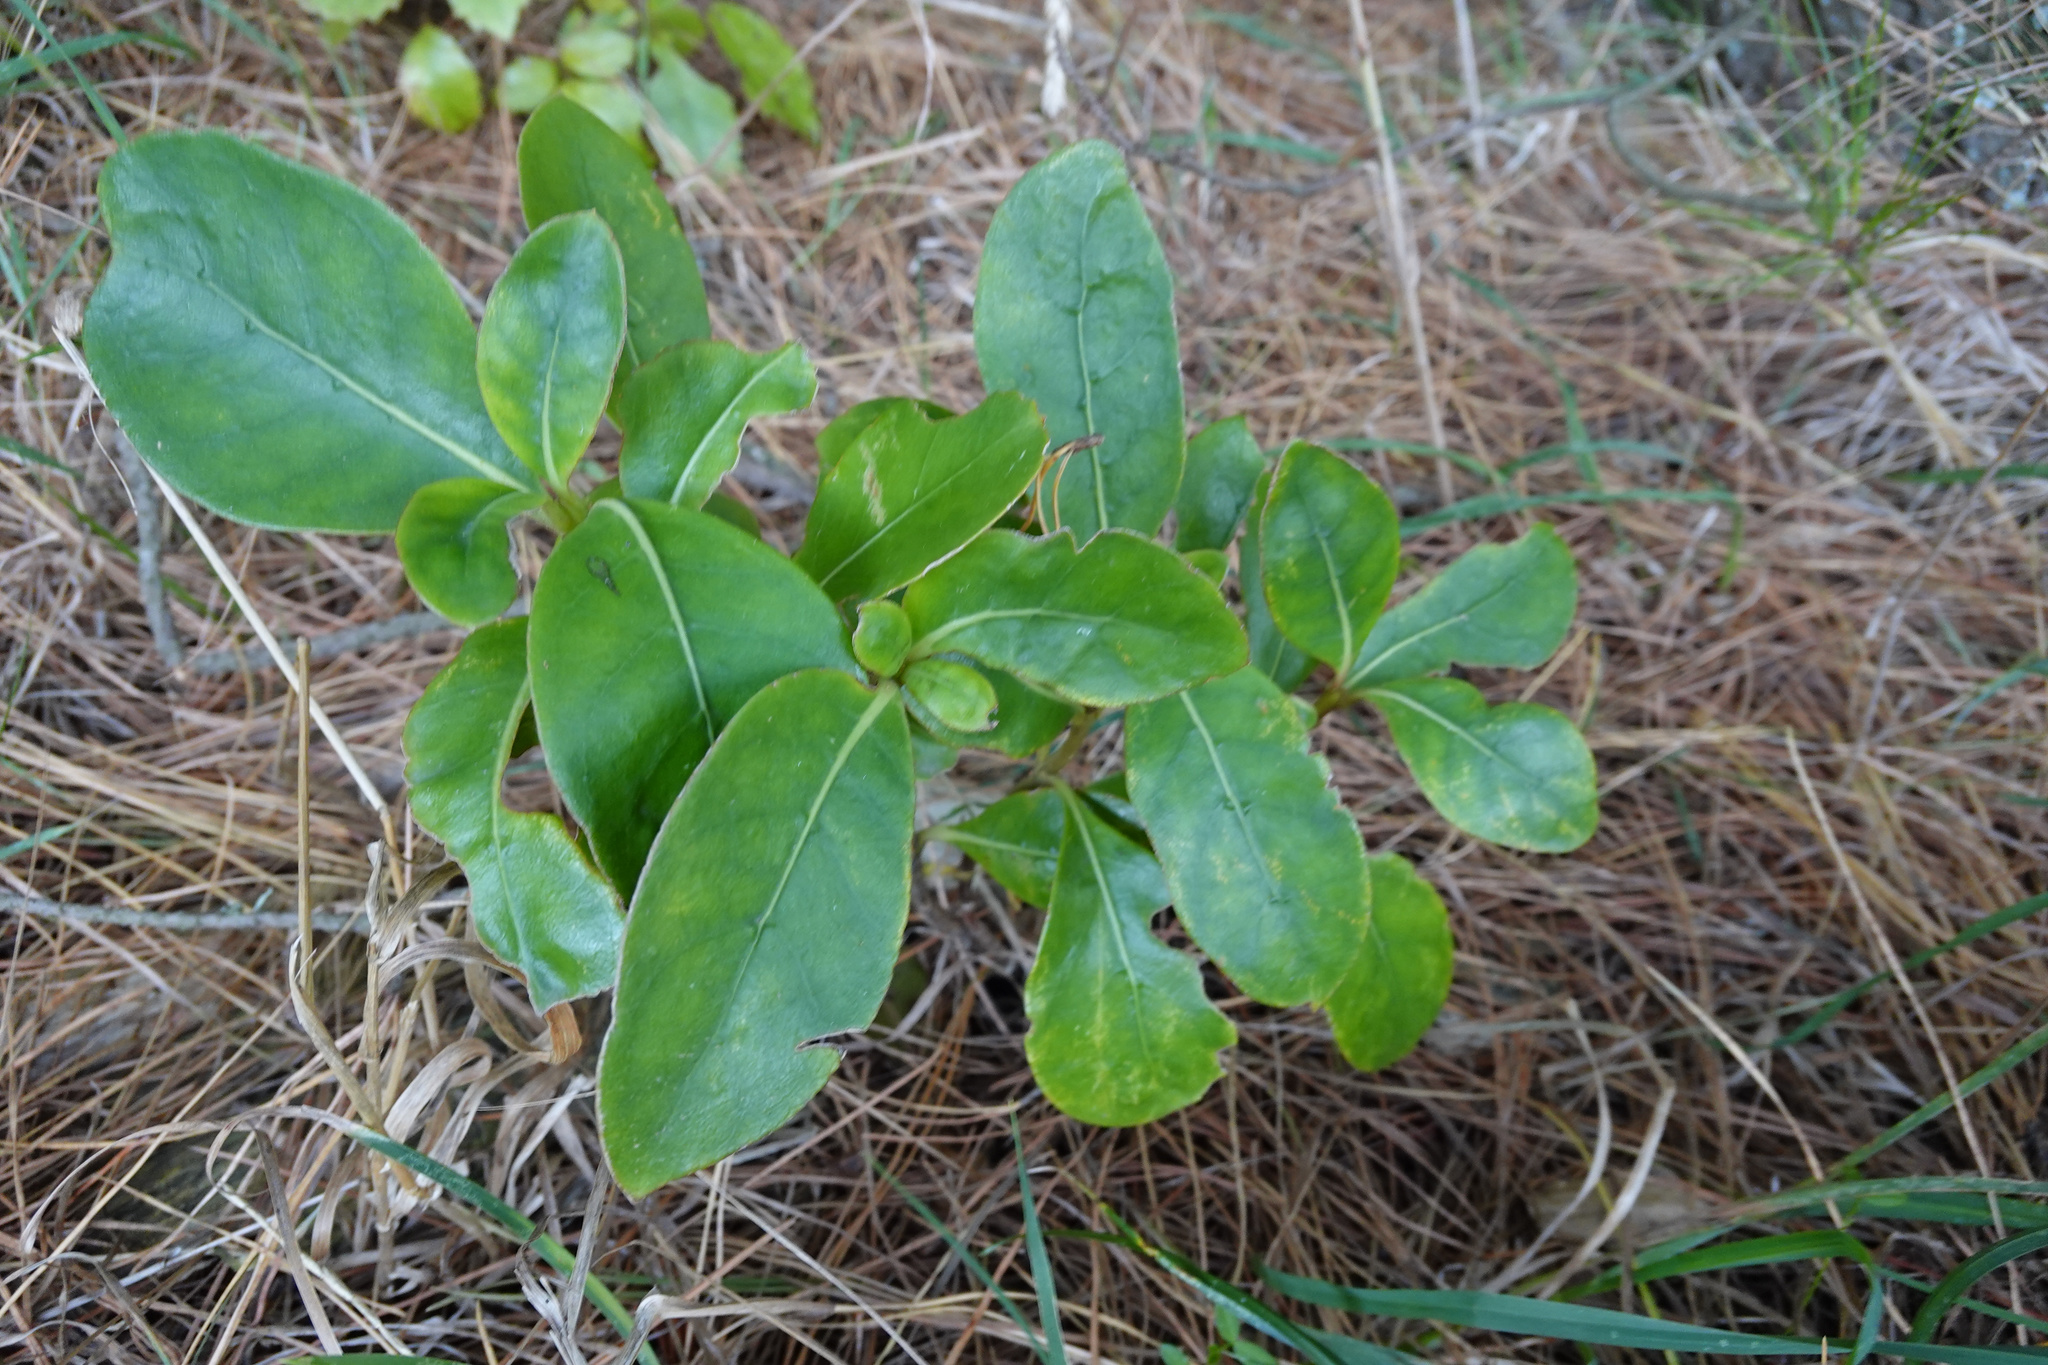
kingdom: Plantae
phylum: Tracheophyta
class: Magnoliopsida
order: Gentianales
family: Rubiaceae
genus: Coprosma
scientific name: Coprosma robusta
